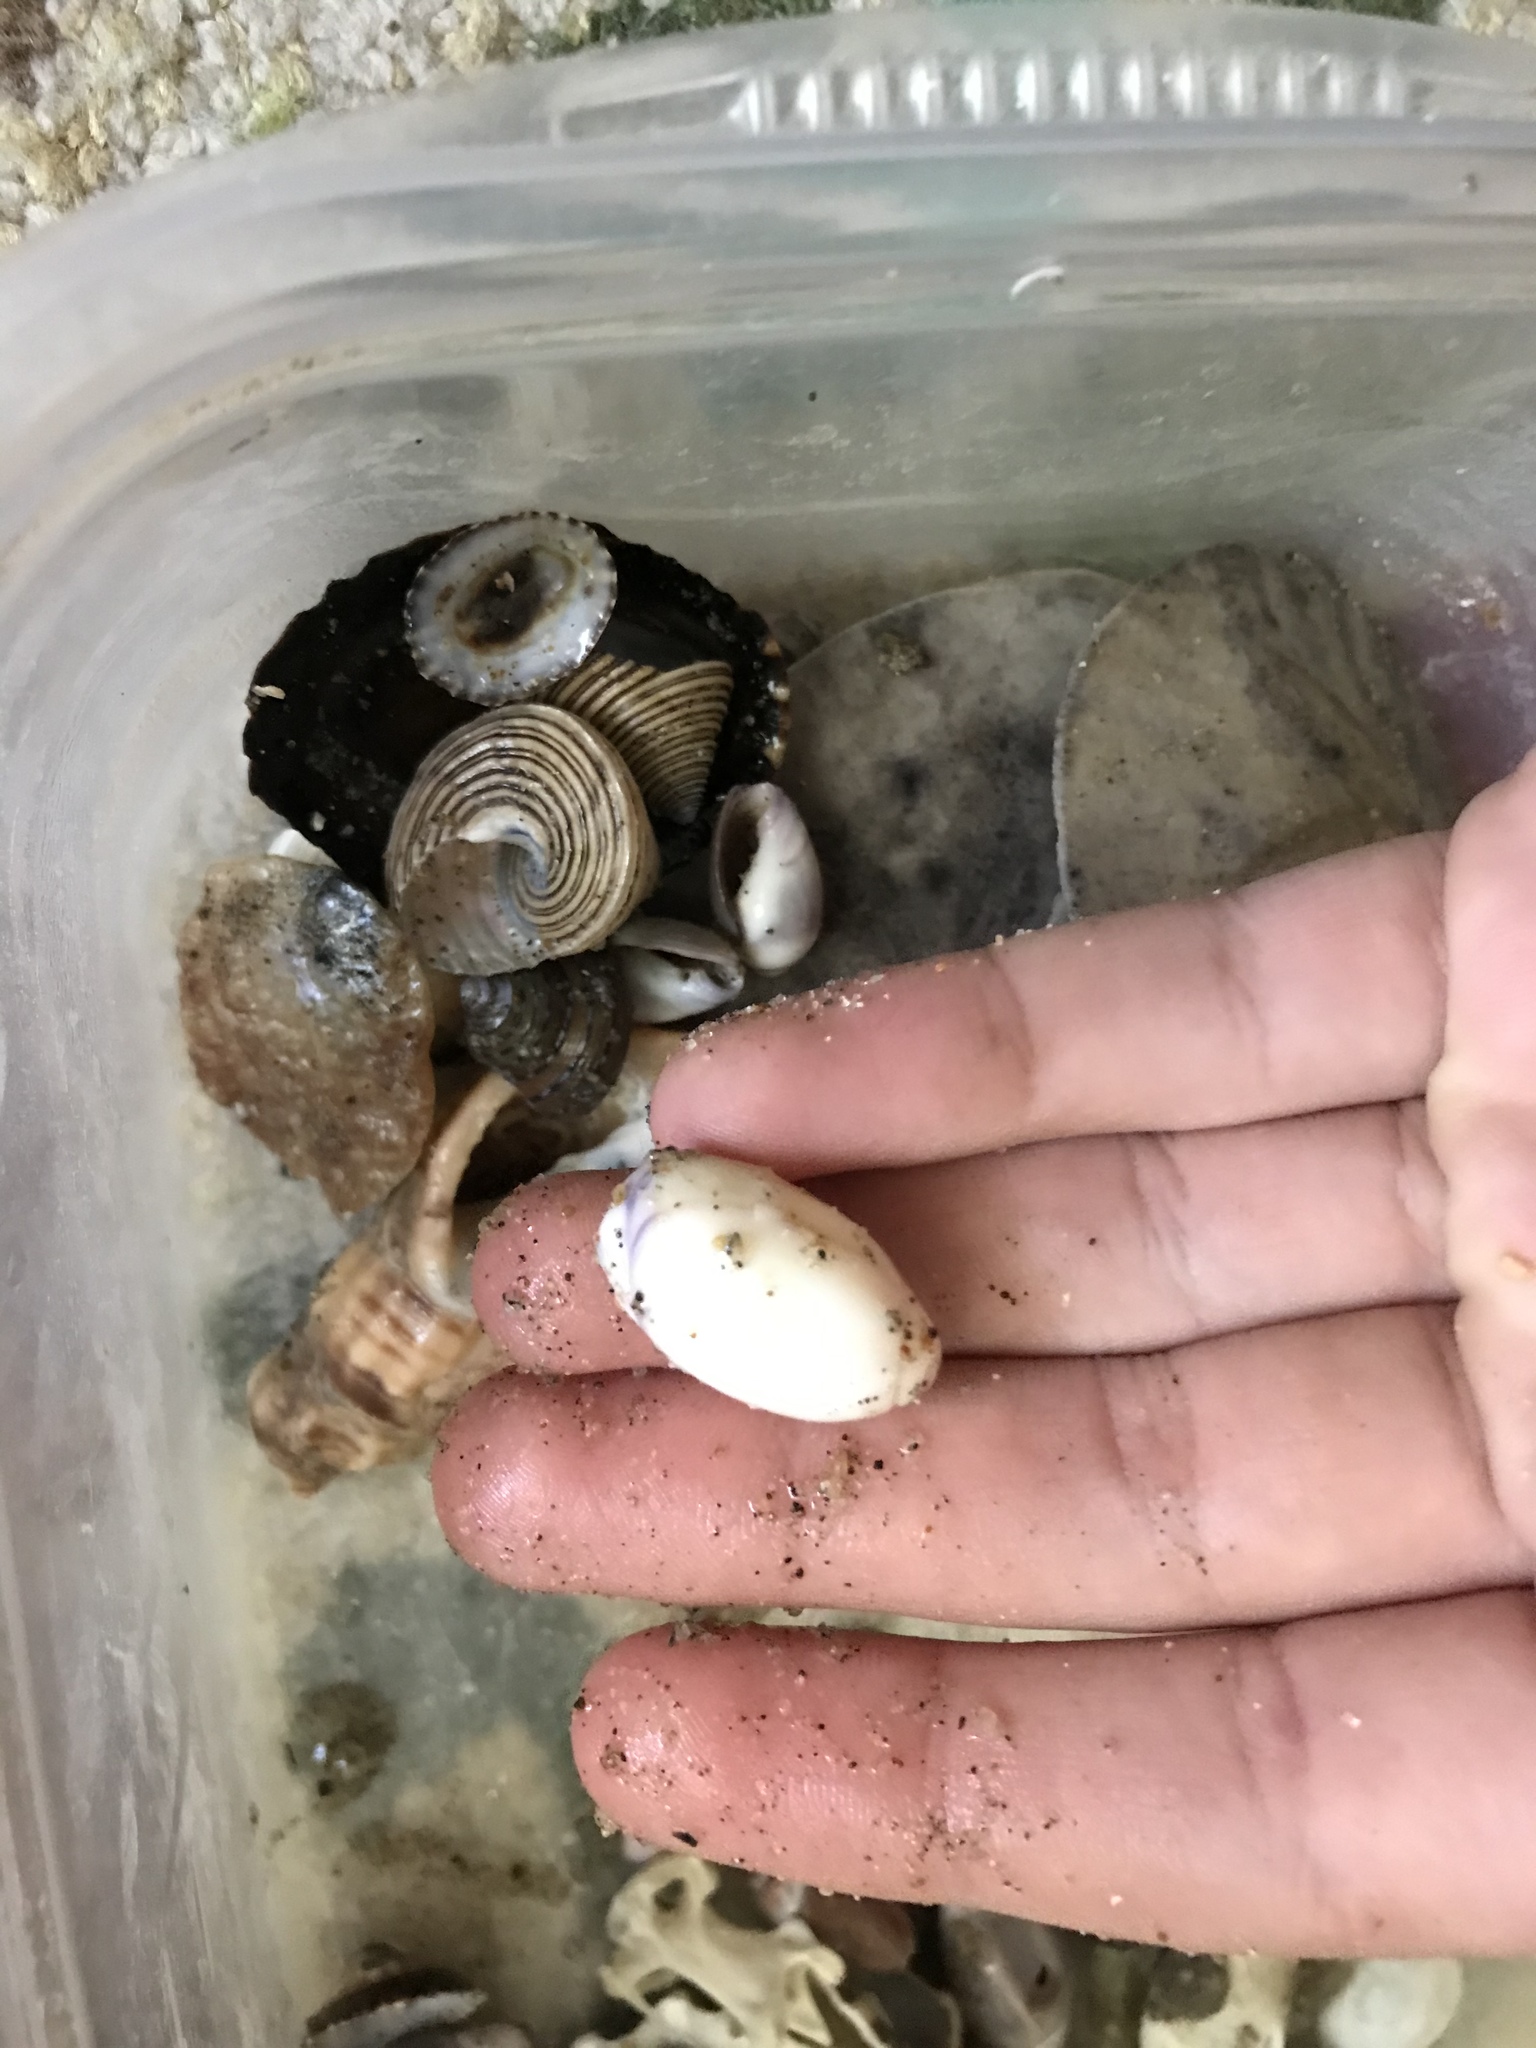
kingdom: Animalia
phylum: Mollusca
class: Gastropoda
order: Neogastropoda
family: Olividae
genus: Callianax
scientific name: Callianax biplicata
